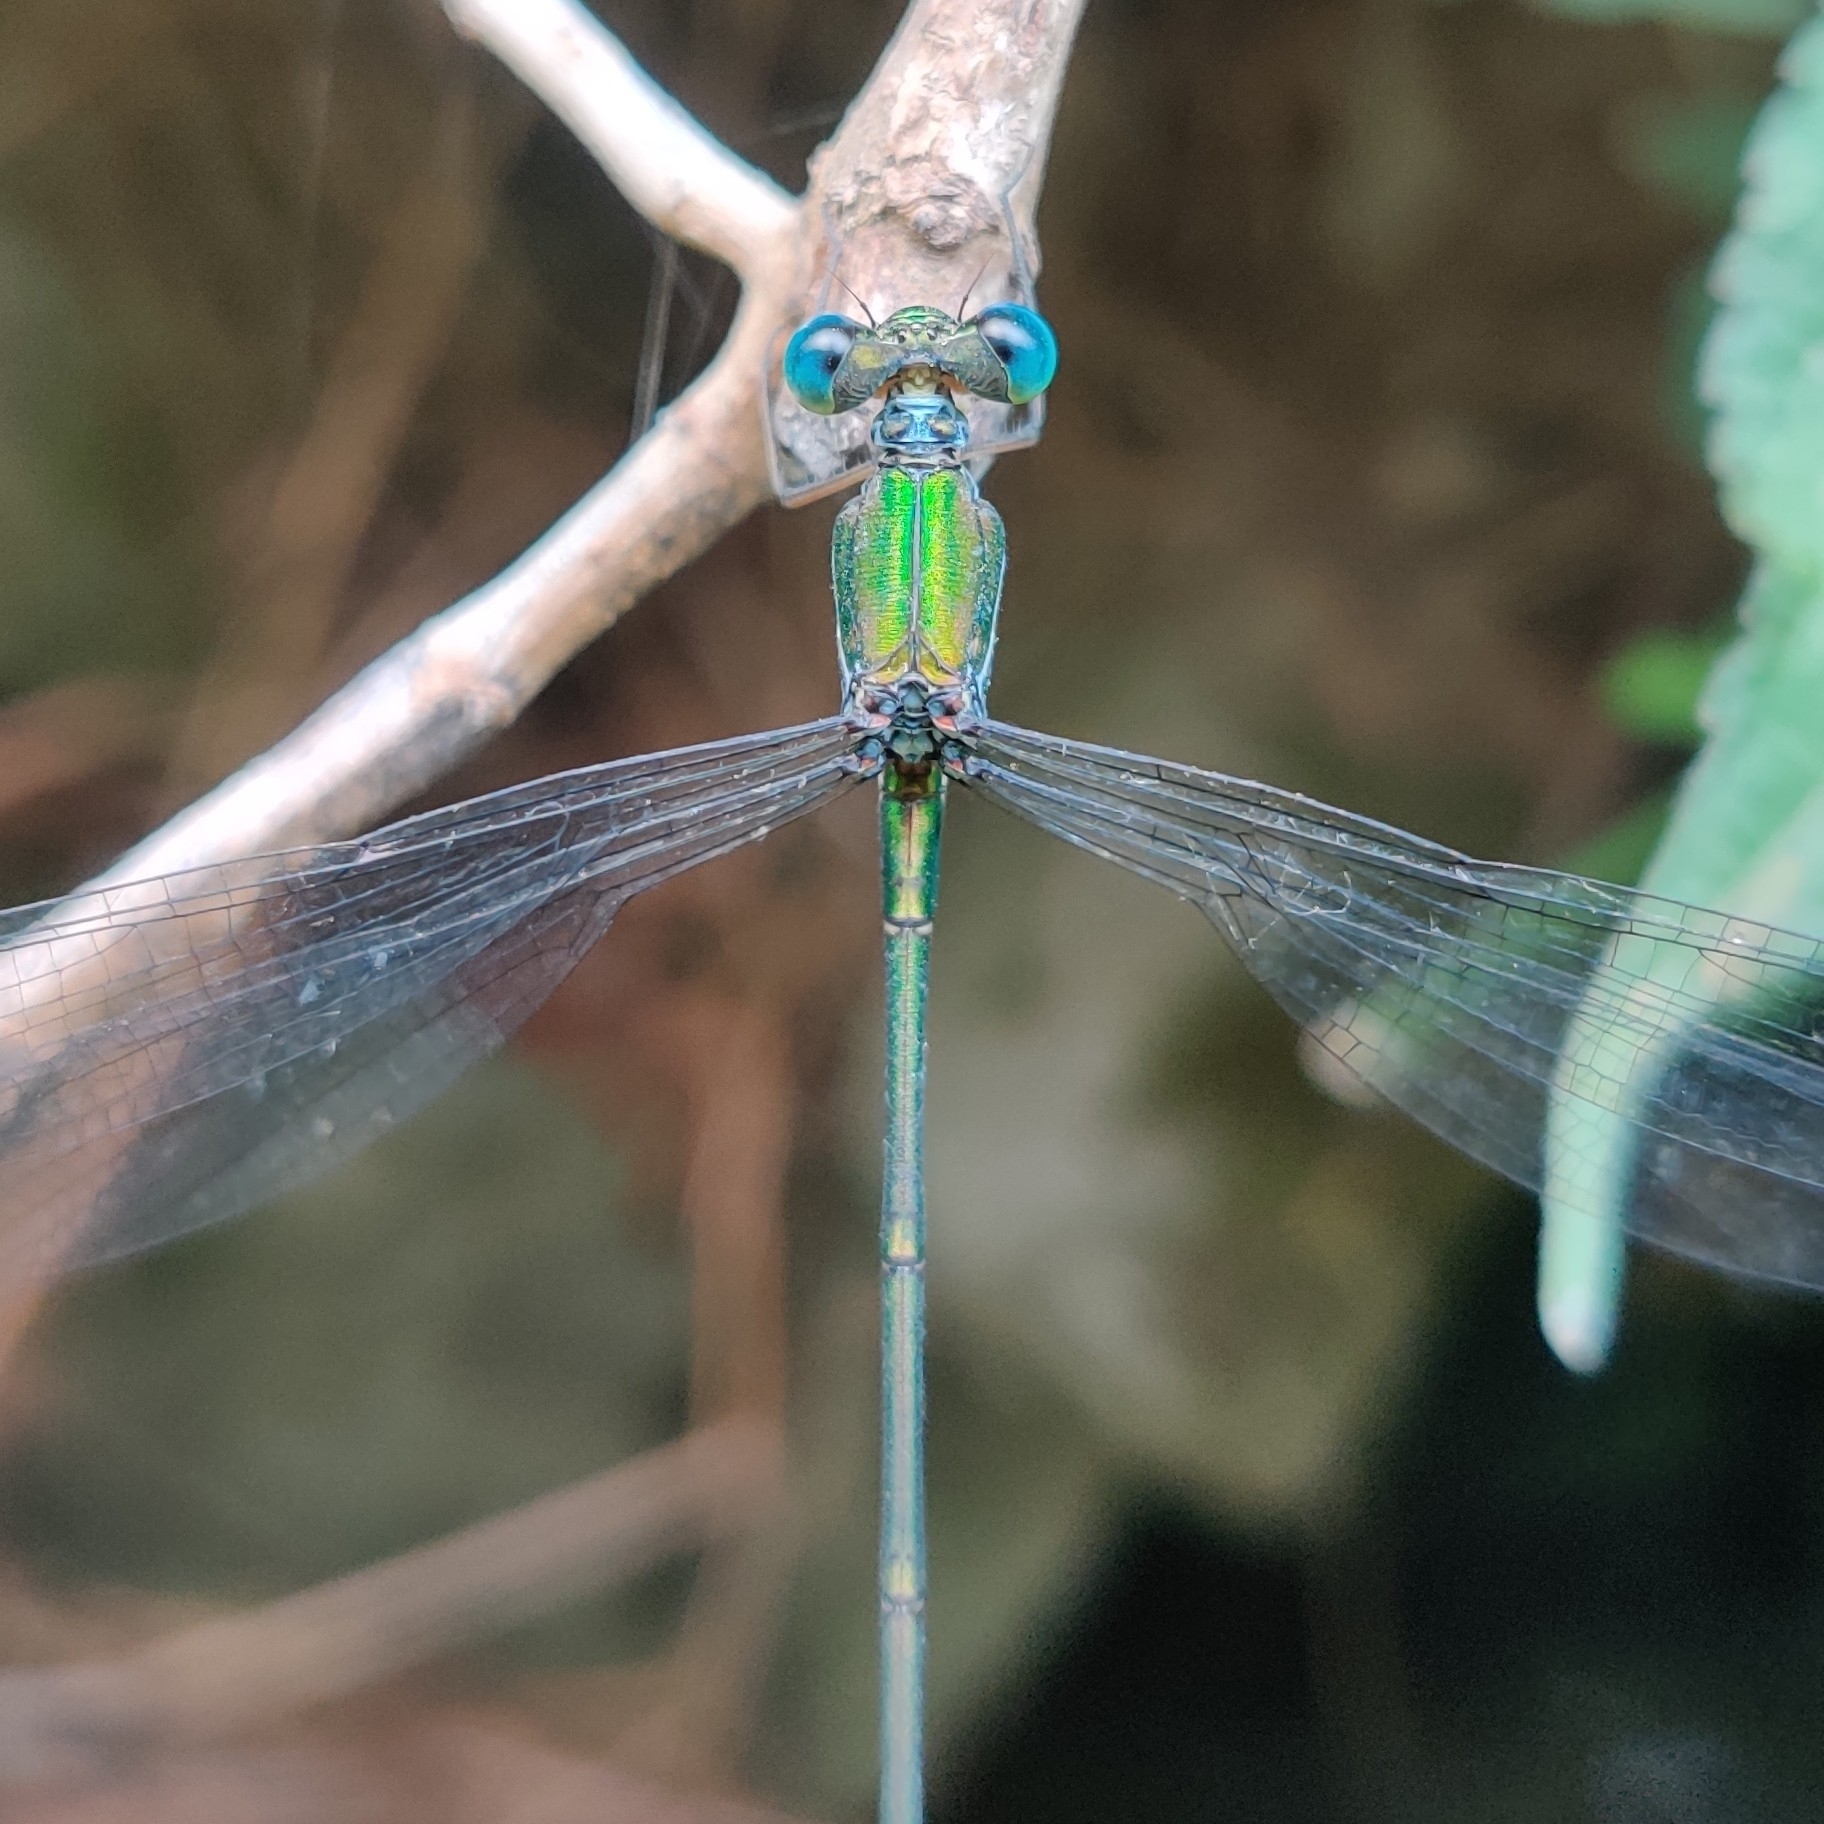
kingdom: Animalia
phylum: Arthropoda
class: Insecta
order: Odonata
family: Synlestidae
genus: Megalestes
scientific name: Megalestes major
